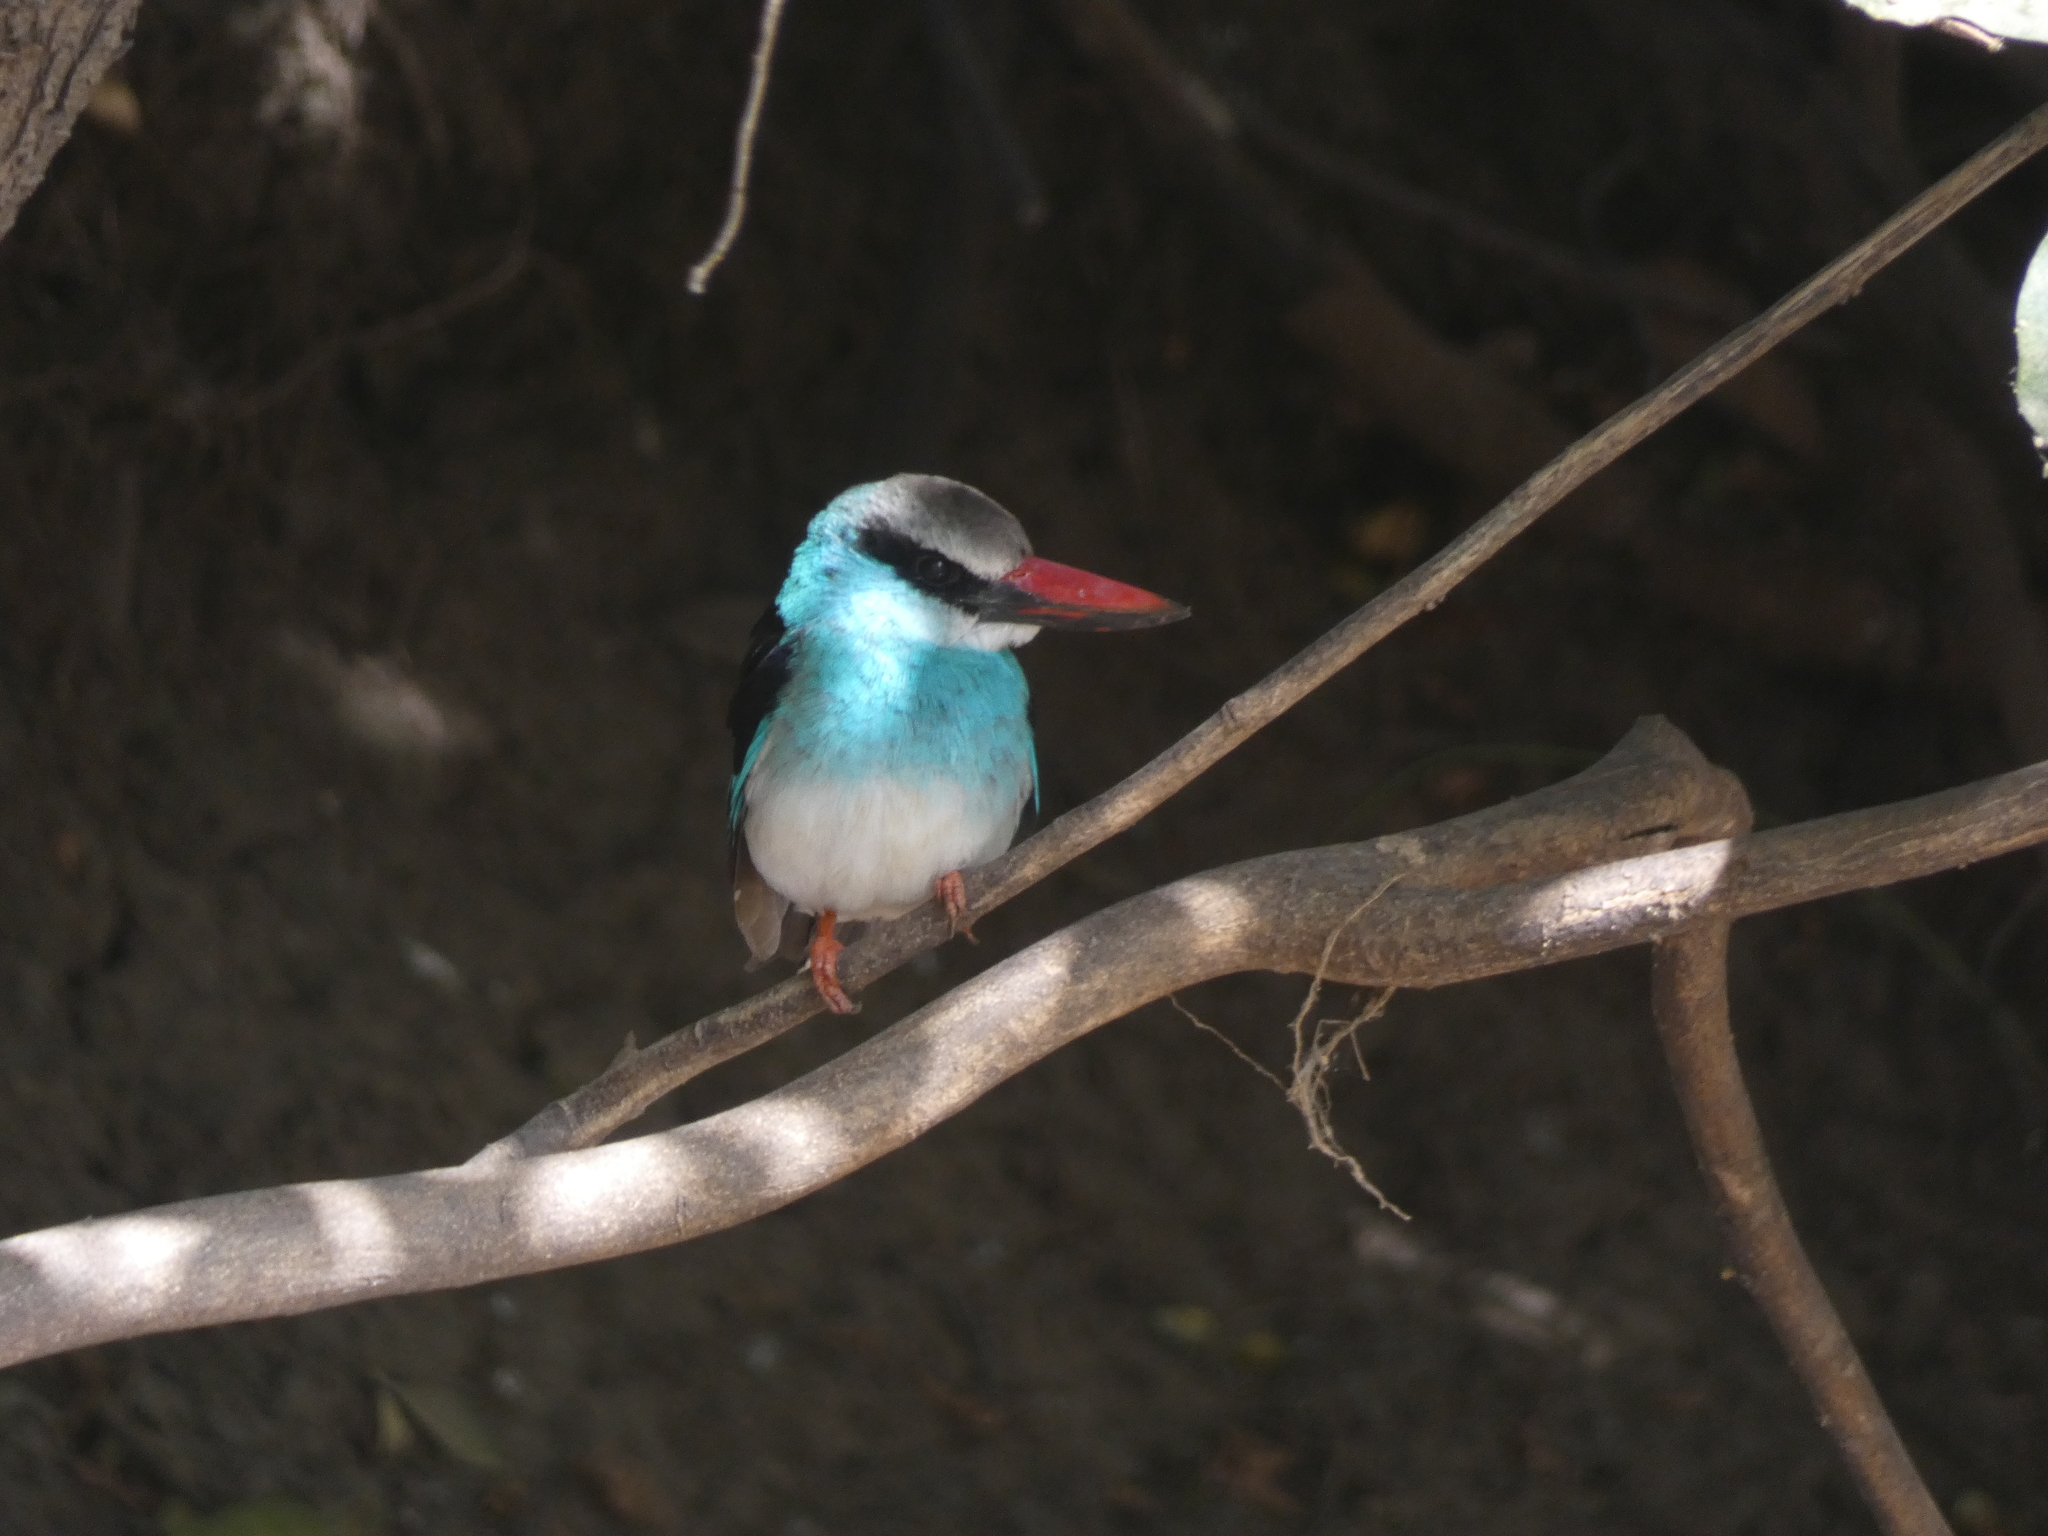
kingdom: Animalia
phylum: Chordata
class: Aves
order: Coraciiformes
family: Alcedinidae
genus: Halcyon
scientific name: Halcyon malimbica
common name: Blue-breasted kingfisher
